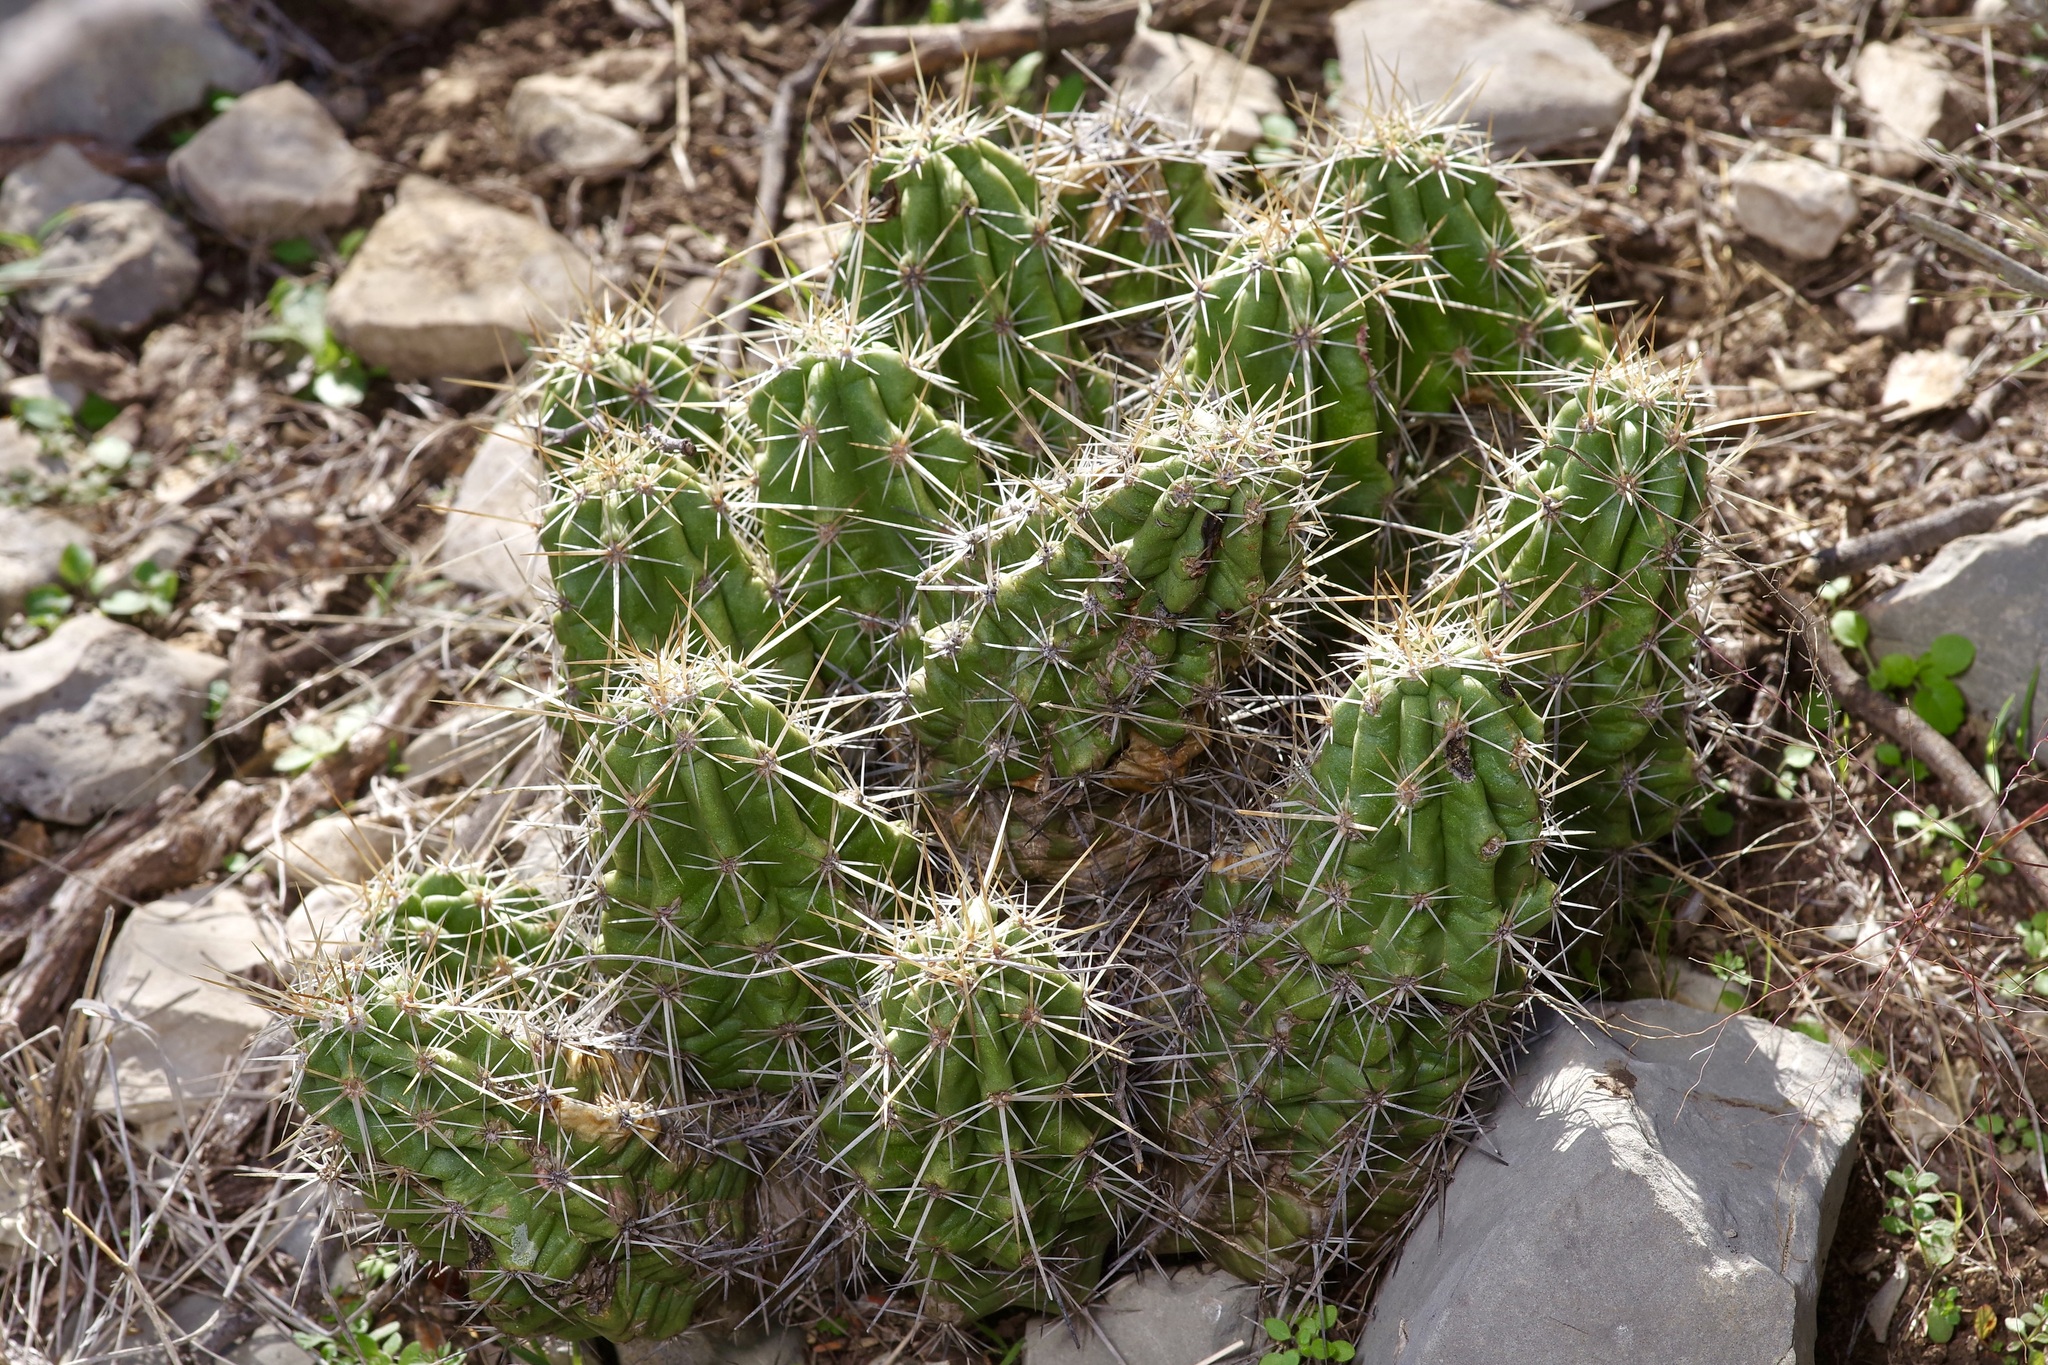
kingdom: Plantae
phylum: Tracheophyta
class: Magnoliopsida
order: Caryophyllales
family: Cactaceae
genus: Echinocereus
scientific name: Echinocereus enneacanthus
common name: Pitaya
